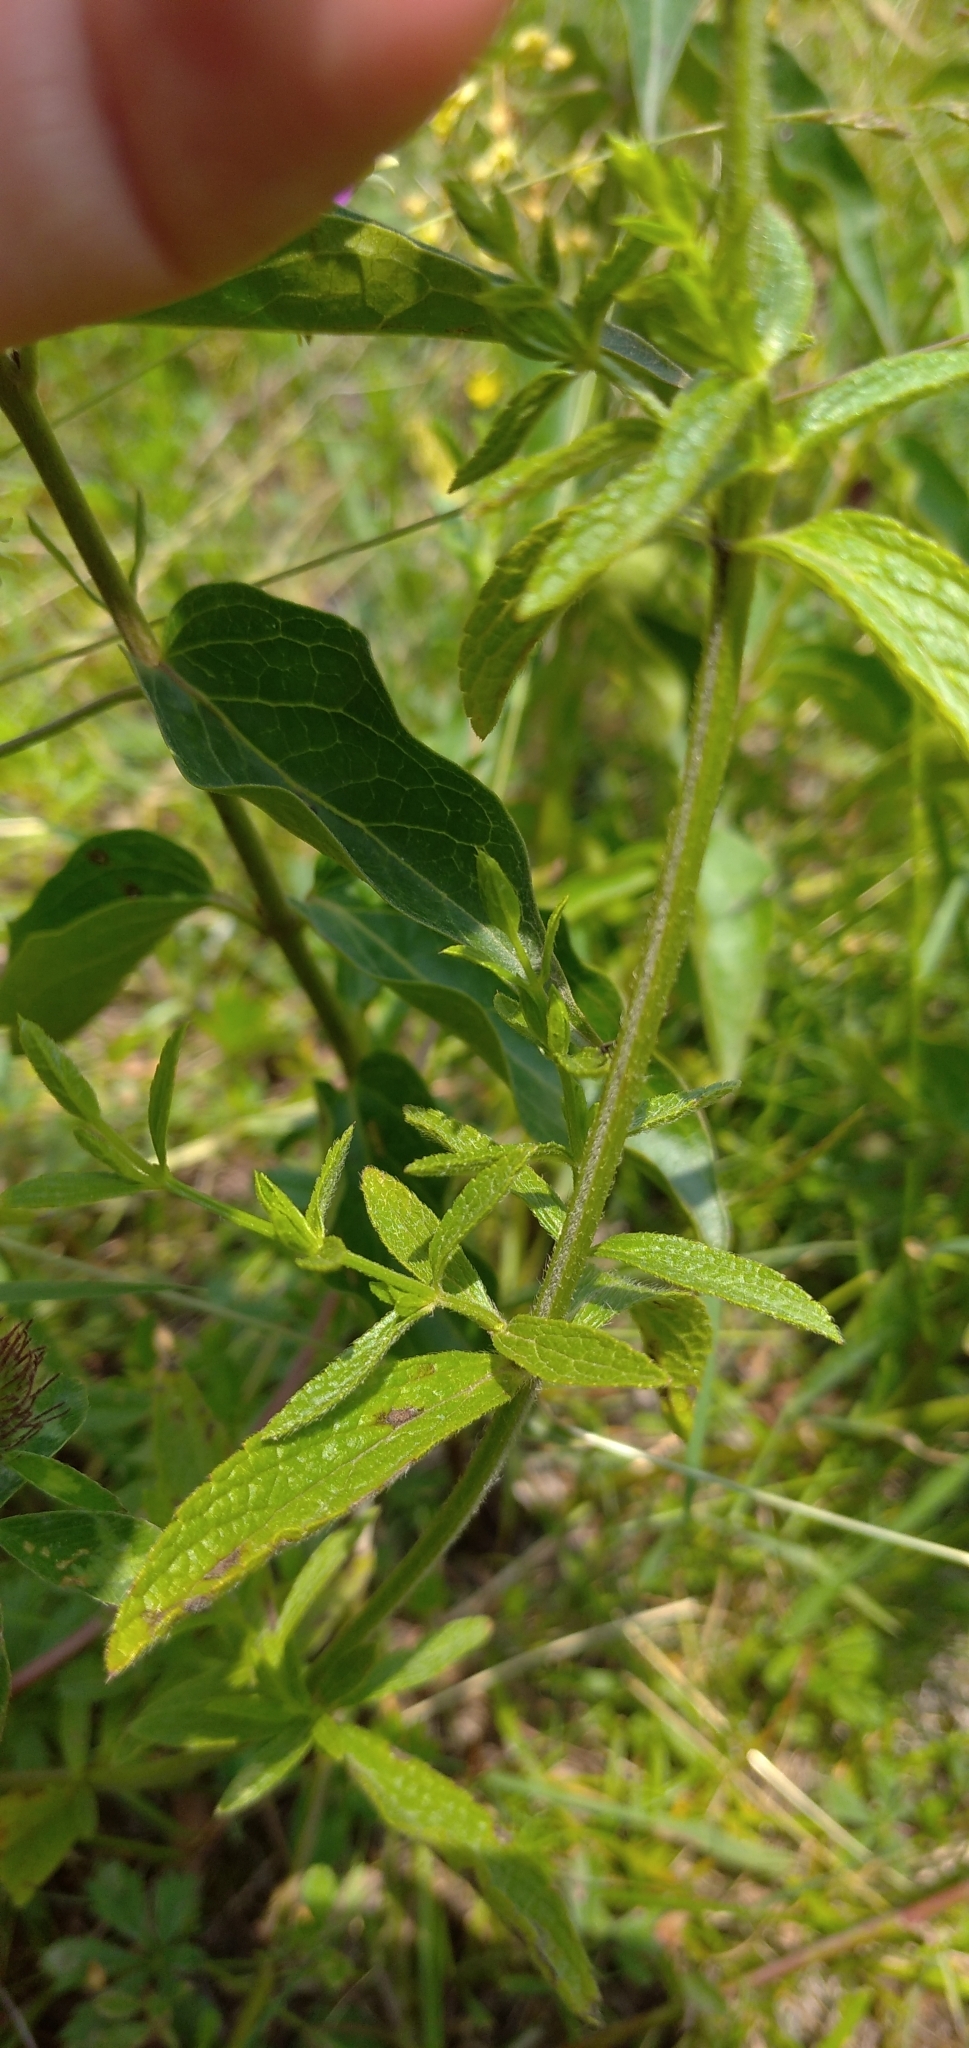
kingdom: Plantae
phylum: Tracheophyta
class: Magnoliopsida
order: Lamiales
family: Lamiaceae
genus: Stachys
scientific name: Stachys recta
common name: Perennial yellow-woundwort
